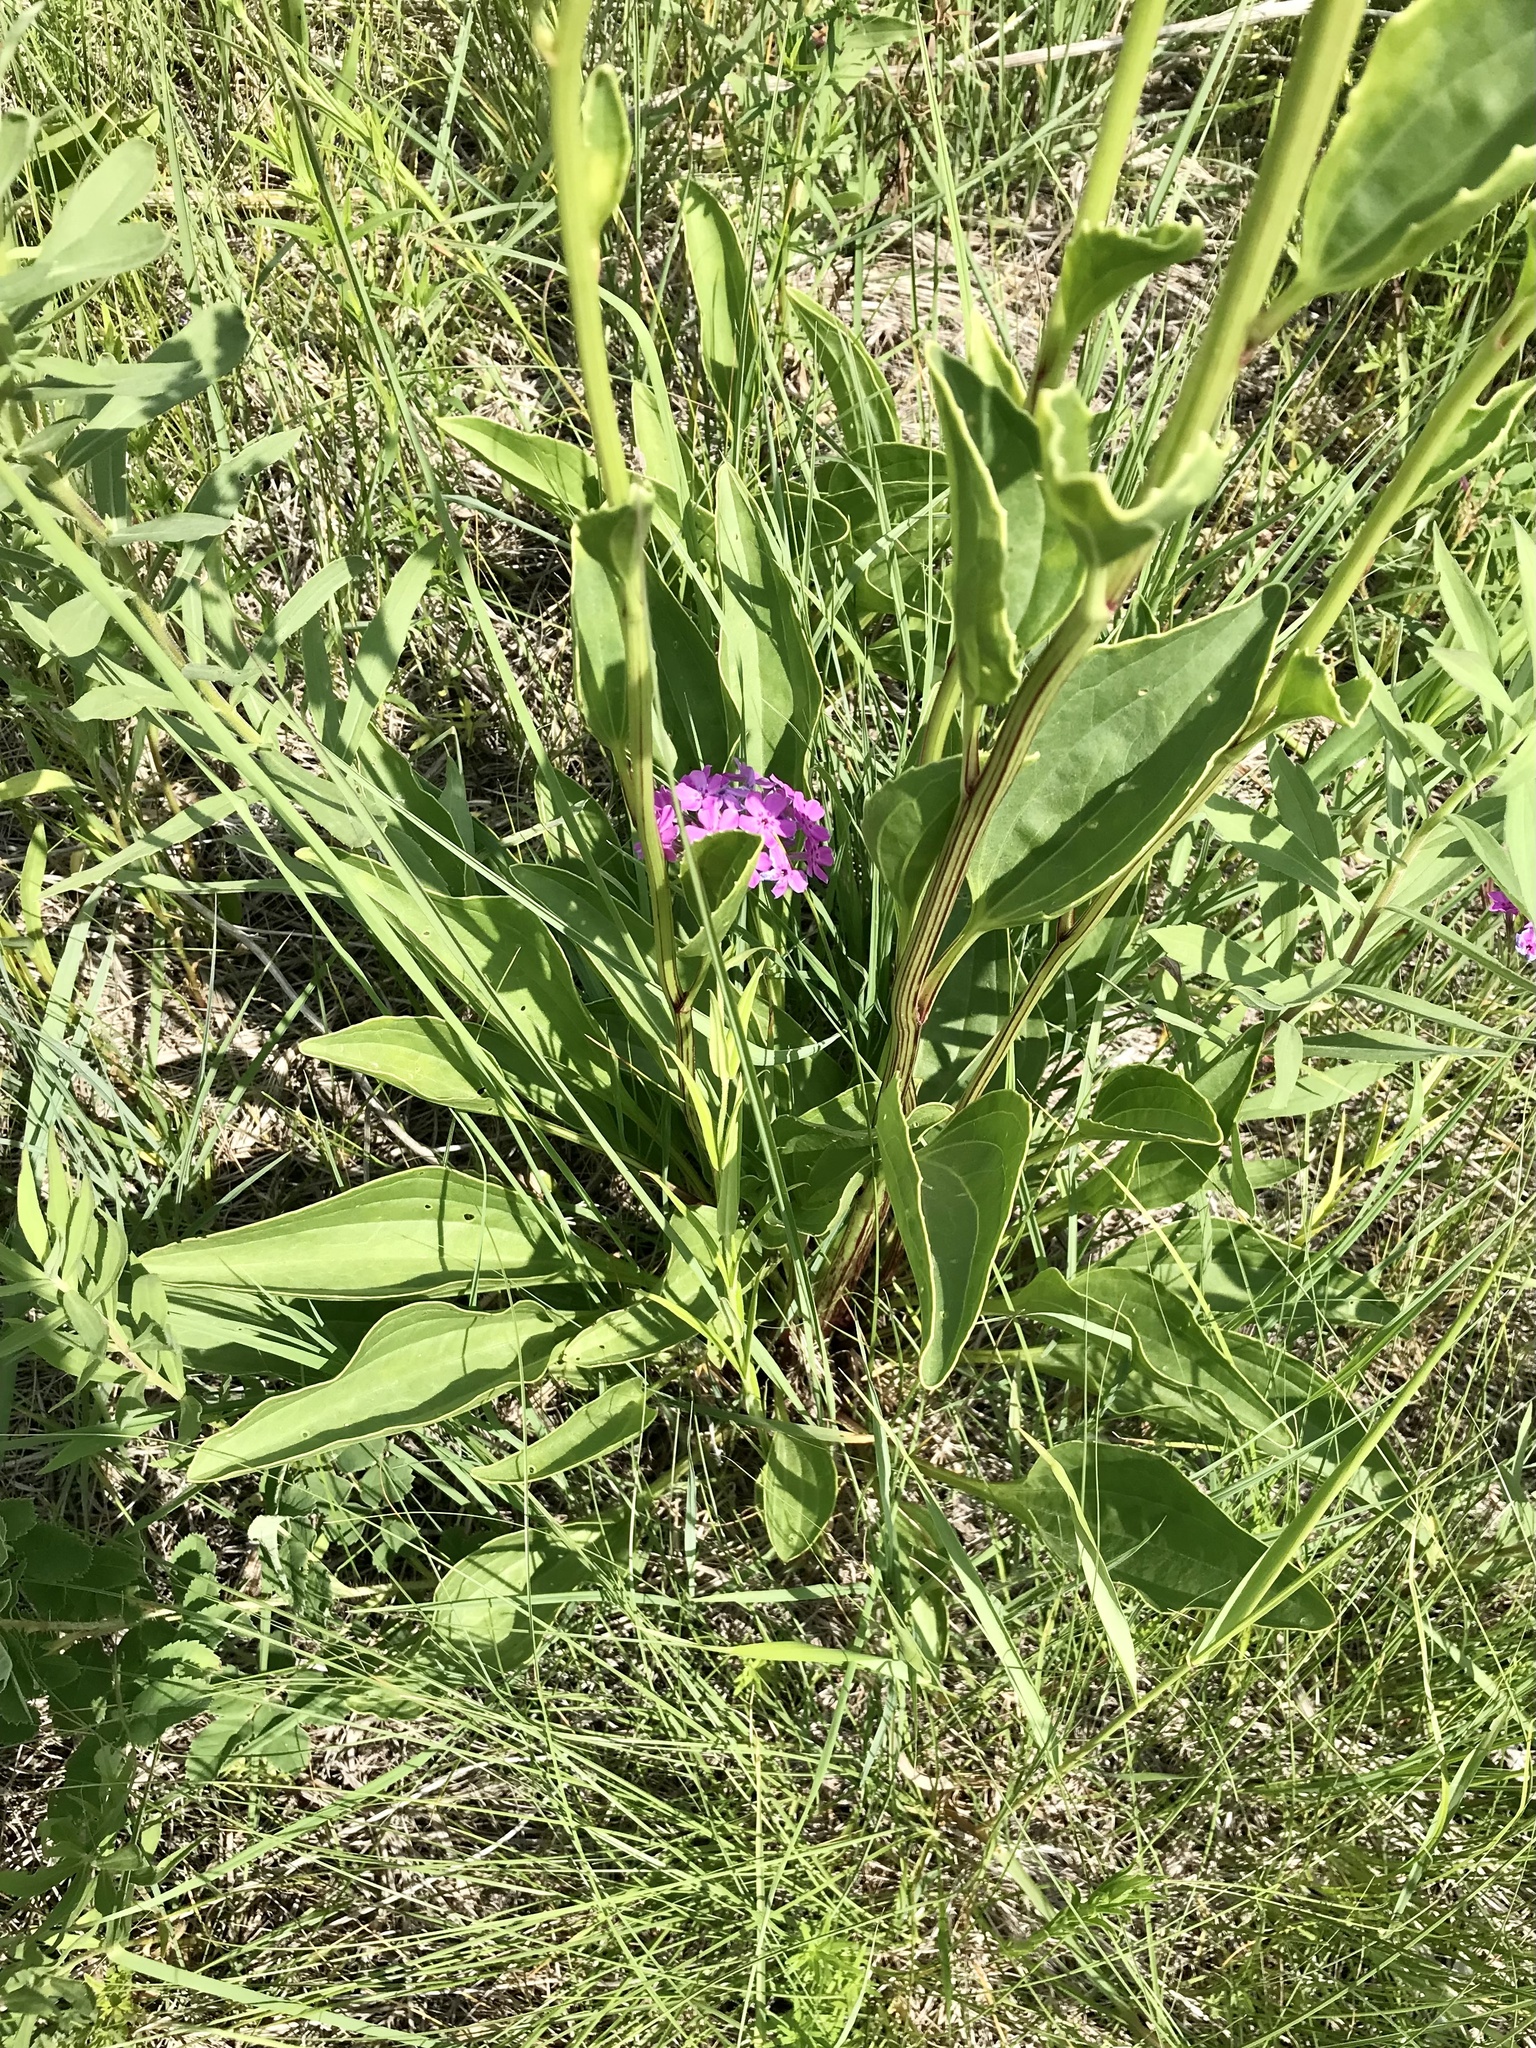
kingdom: Plantae
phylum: Tracheophyta
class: Magnoliopsida
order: Asterales
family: Asteraceae
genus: Arnoglossum
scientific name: Arnoglossum plantagineum
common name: Groove-stemmed indian-plantain
